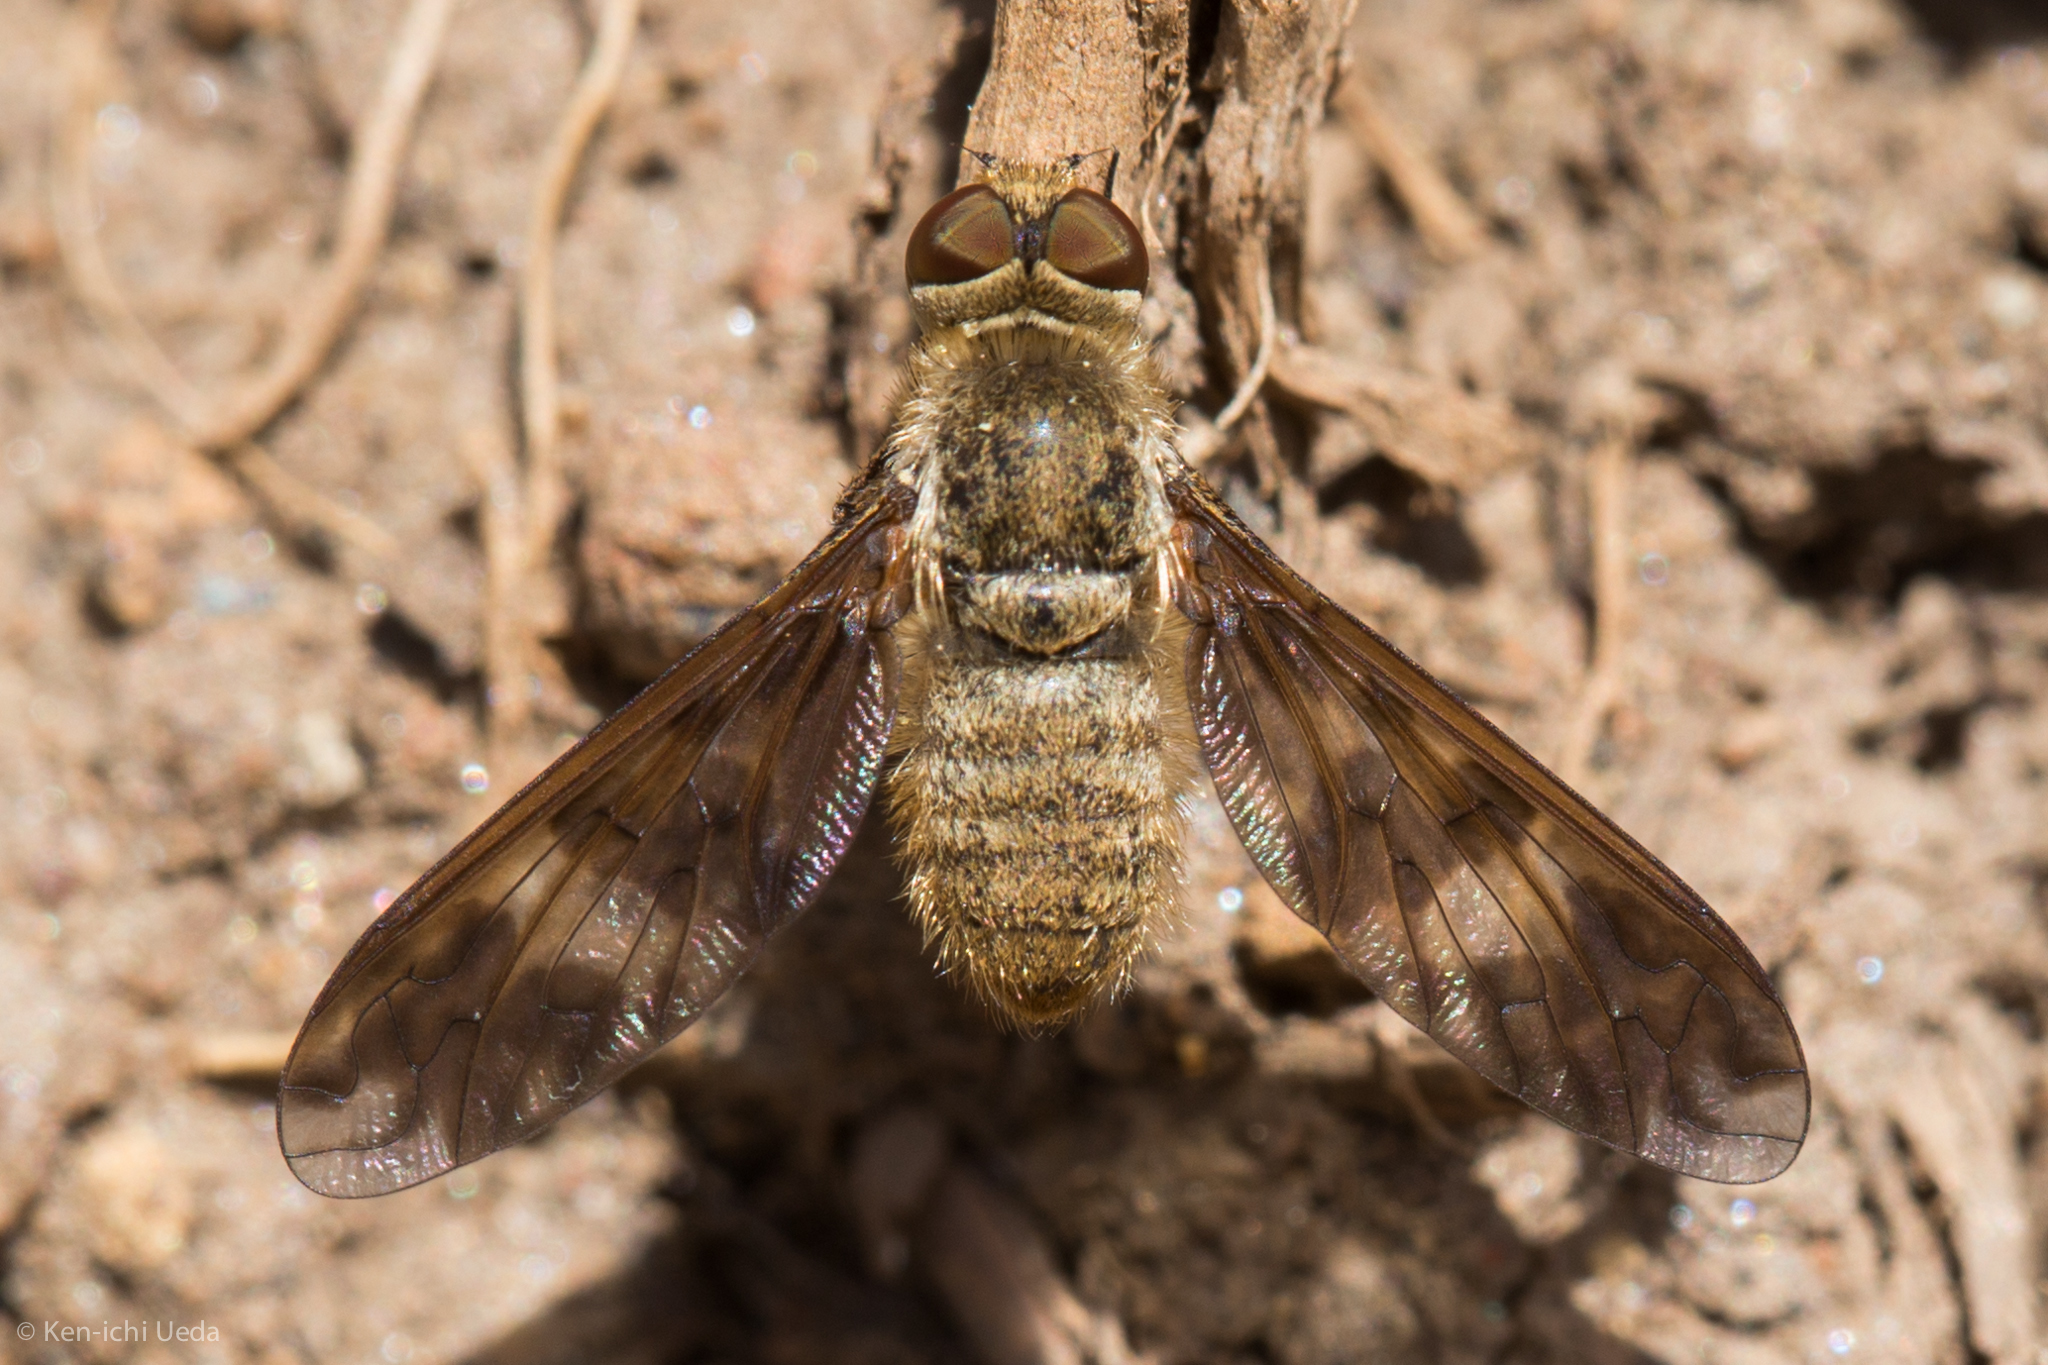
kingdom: Animalia
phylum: Arthropoda
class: Insecta
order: Diptera
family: Bombyliidae
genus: Dipalta
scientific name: Dipalta serpentina
